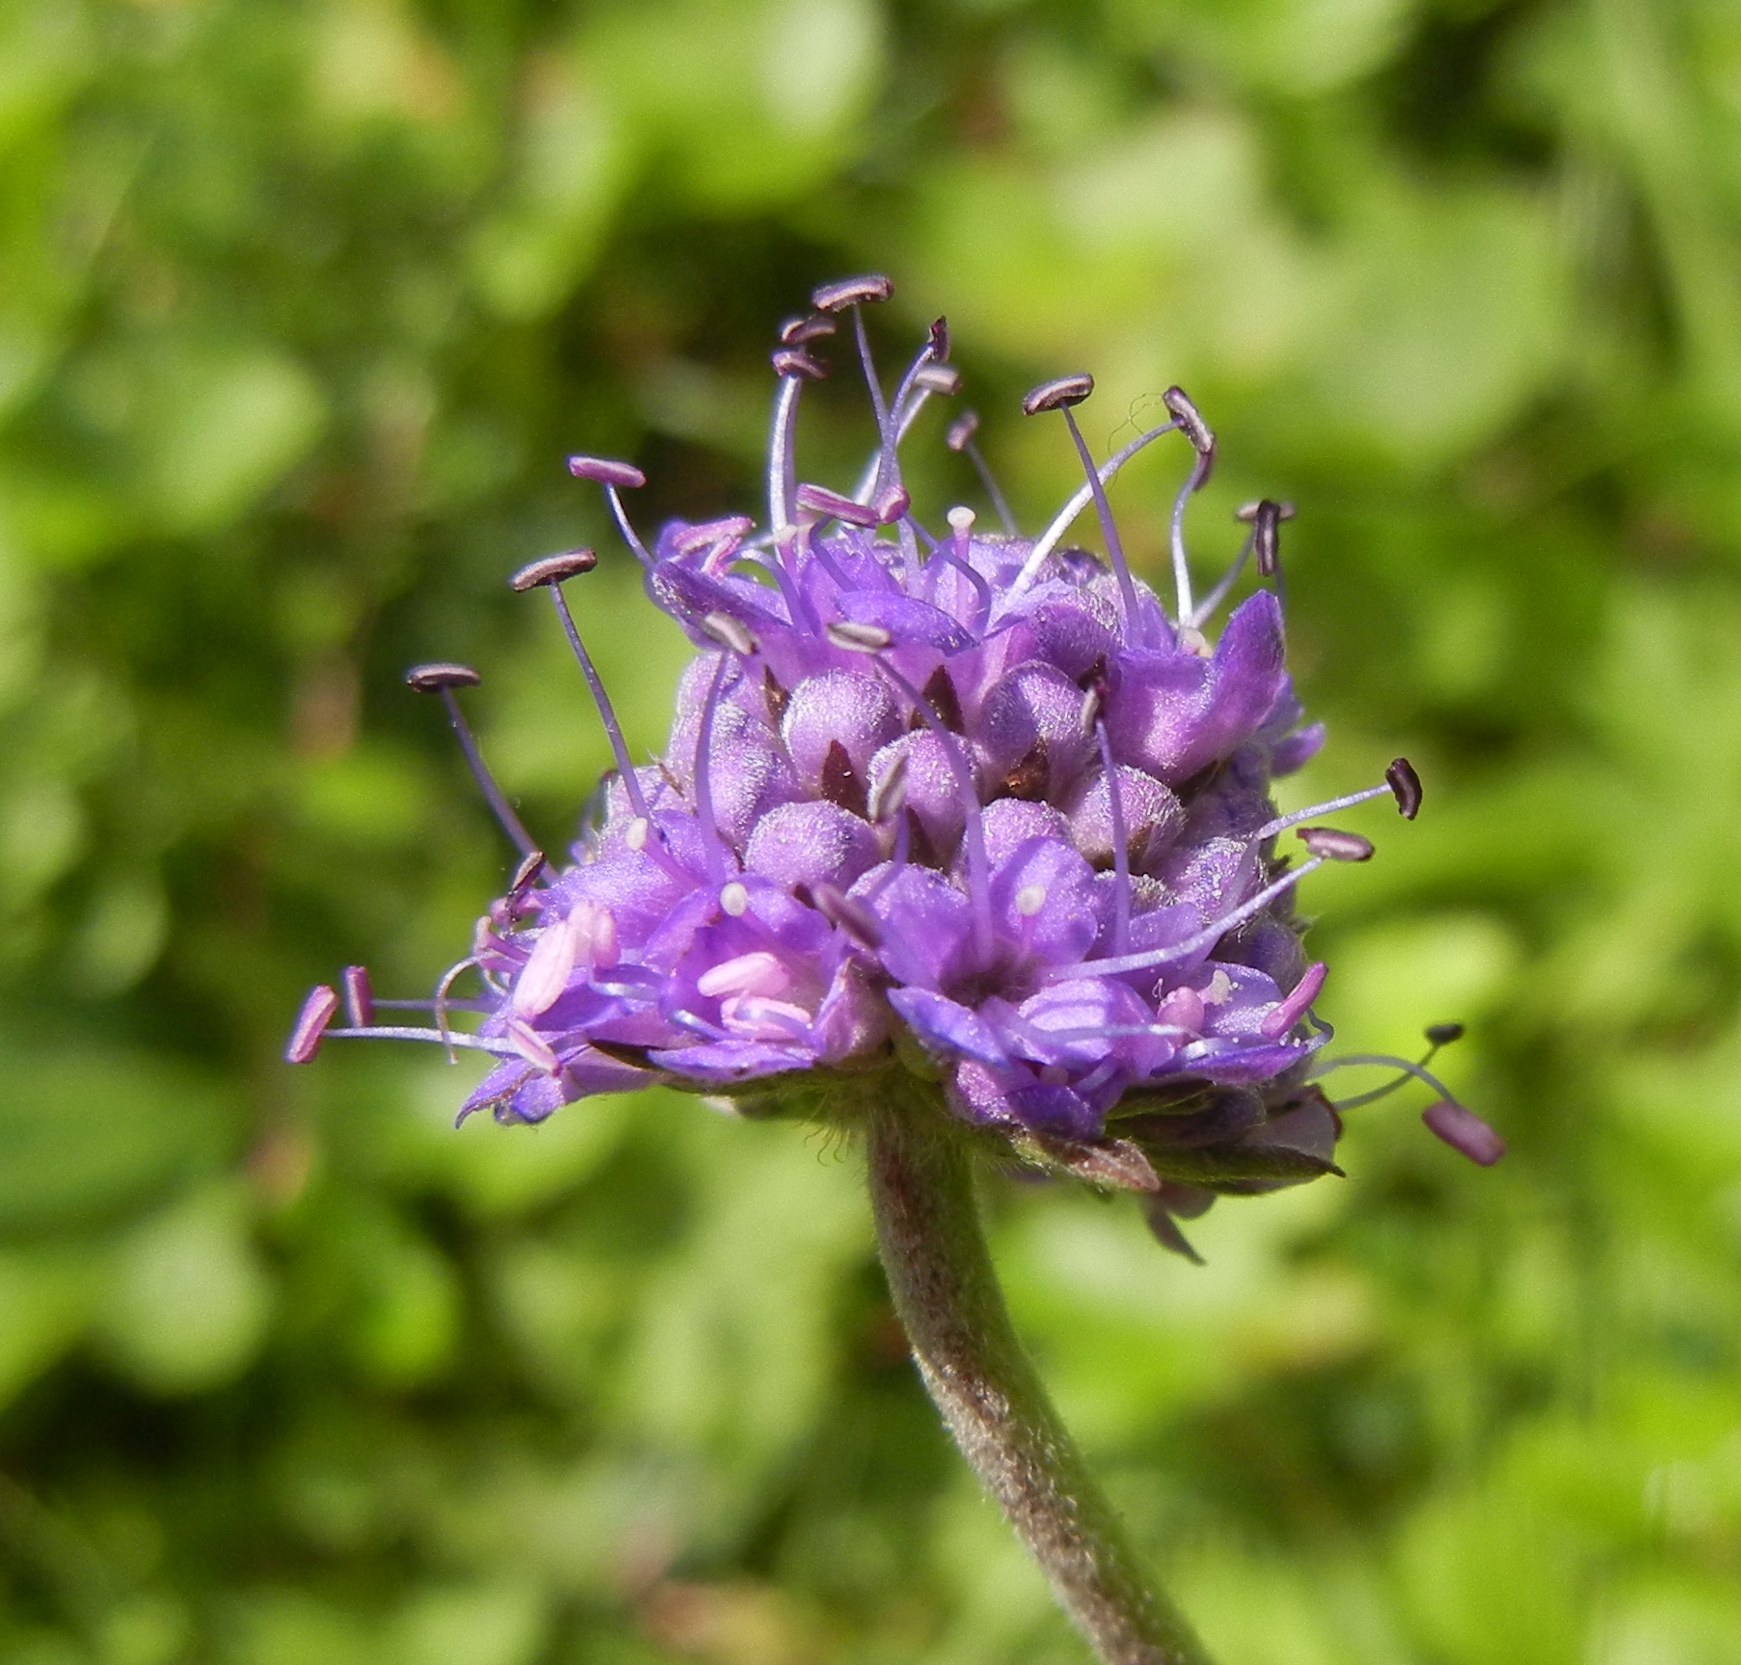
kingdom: Plantae
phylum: Tracheophyta
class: Magnoliopsida
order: Dipsacales
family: Caprifoliaceae
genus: Succisa
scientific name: Succisa pratensis
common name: Devil's-bit
